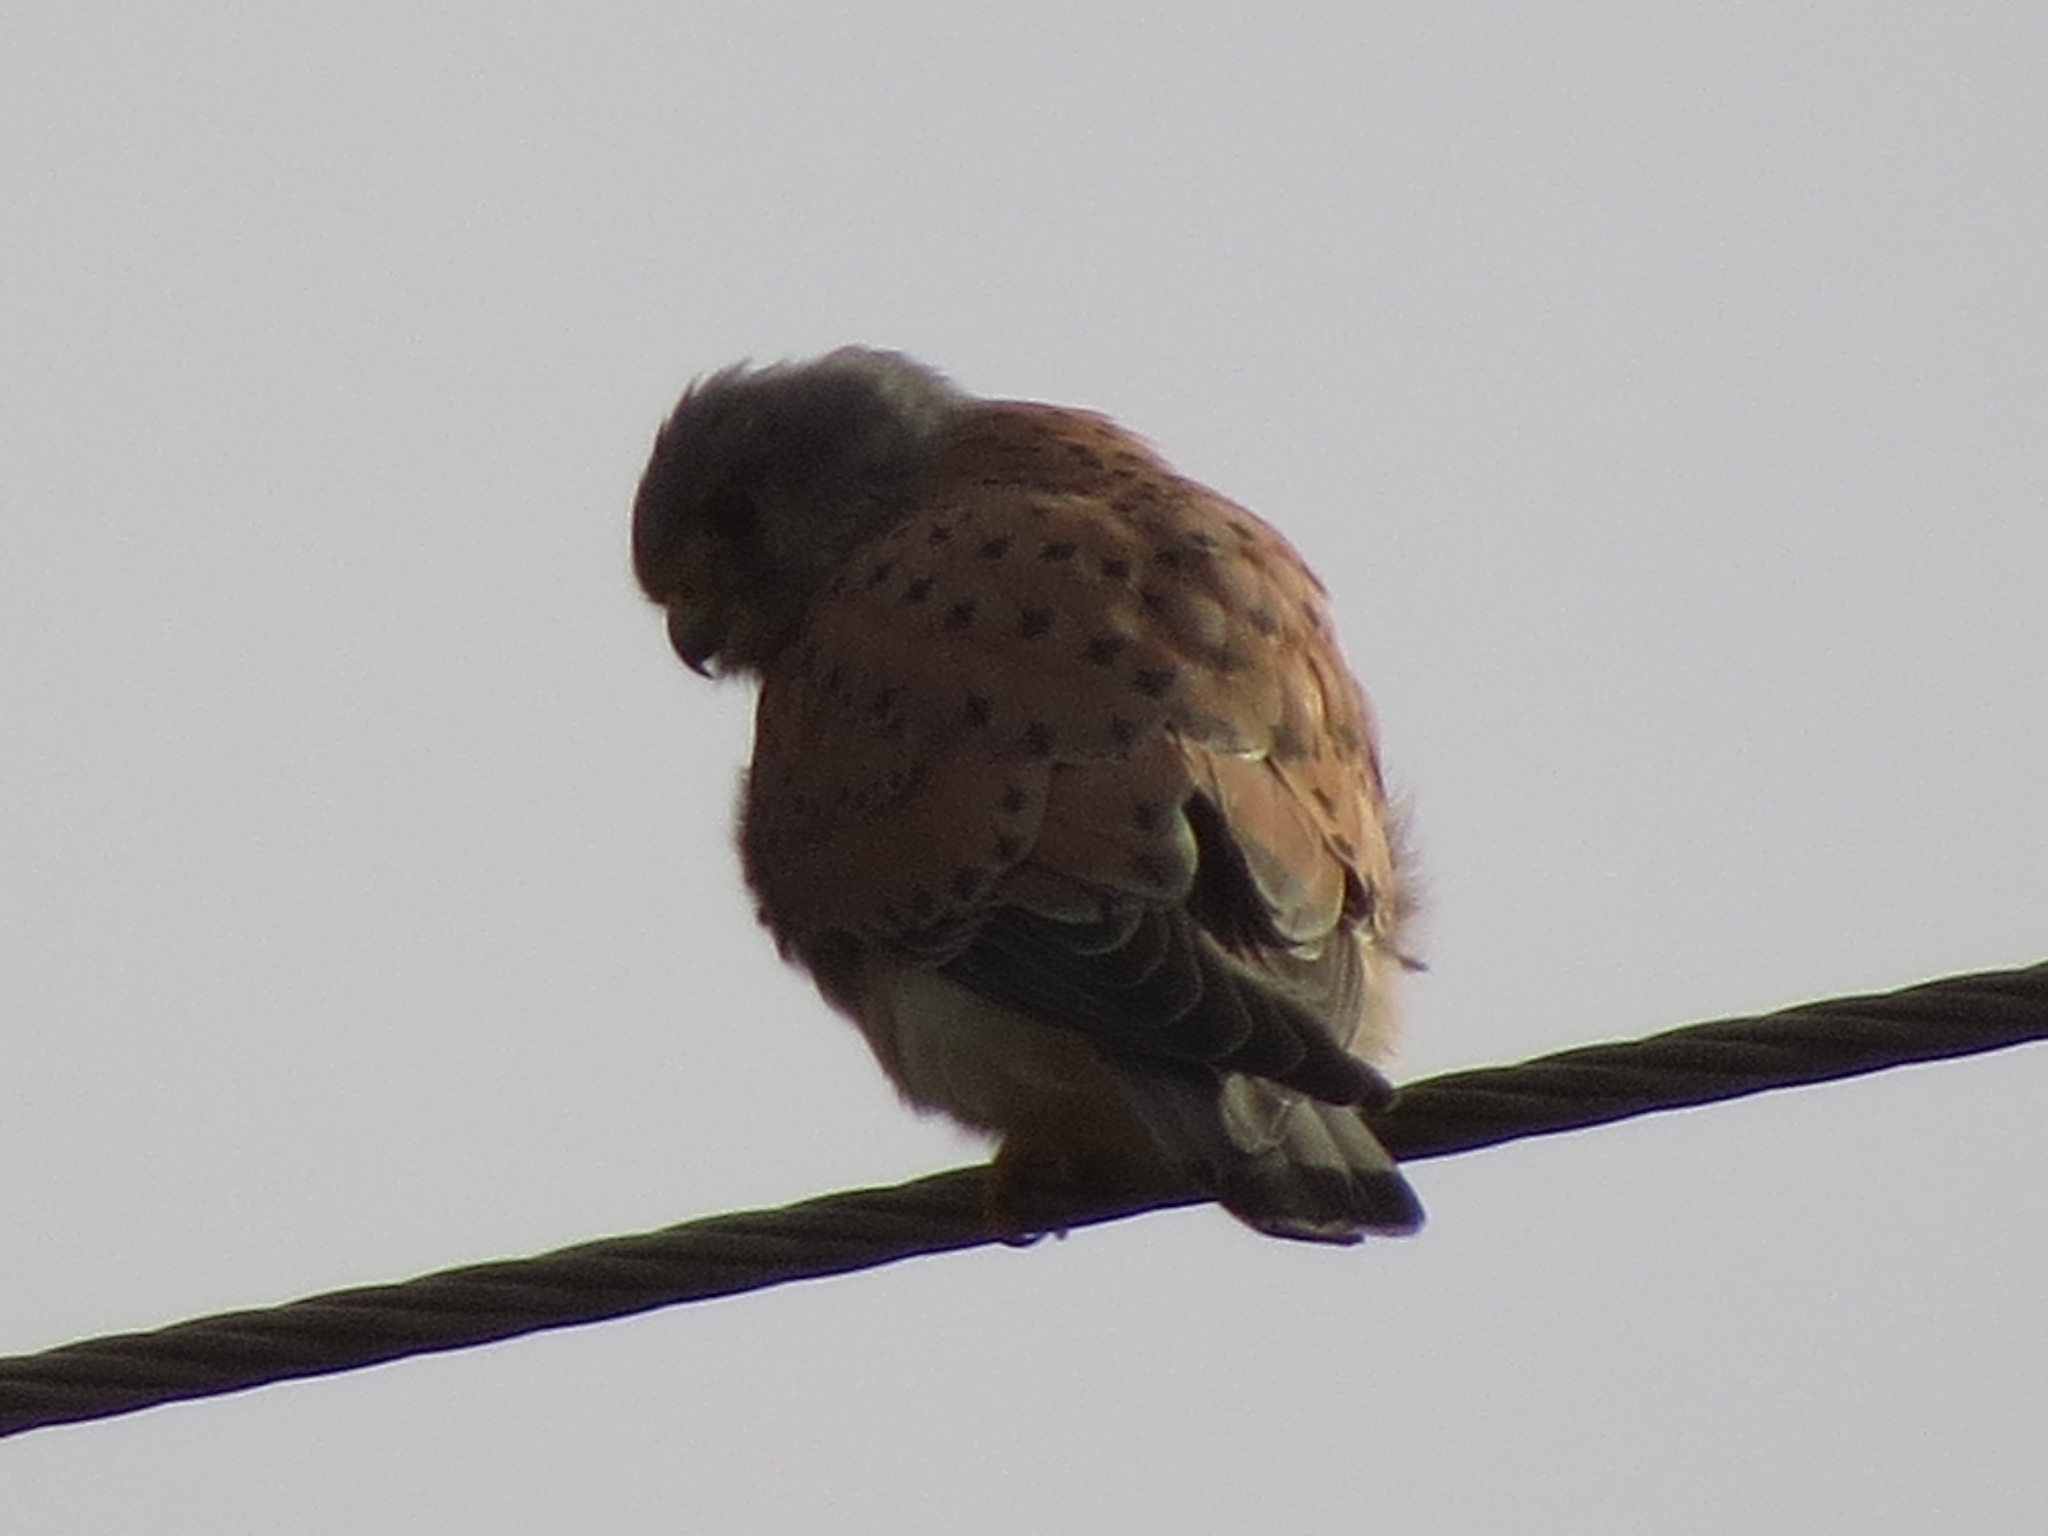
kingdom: Animalia
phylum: Chordata
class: Aves
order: Falconiformes
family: Falconidae
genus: Falco
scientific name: Falco tinnunculus
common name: Common kestrel
